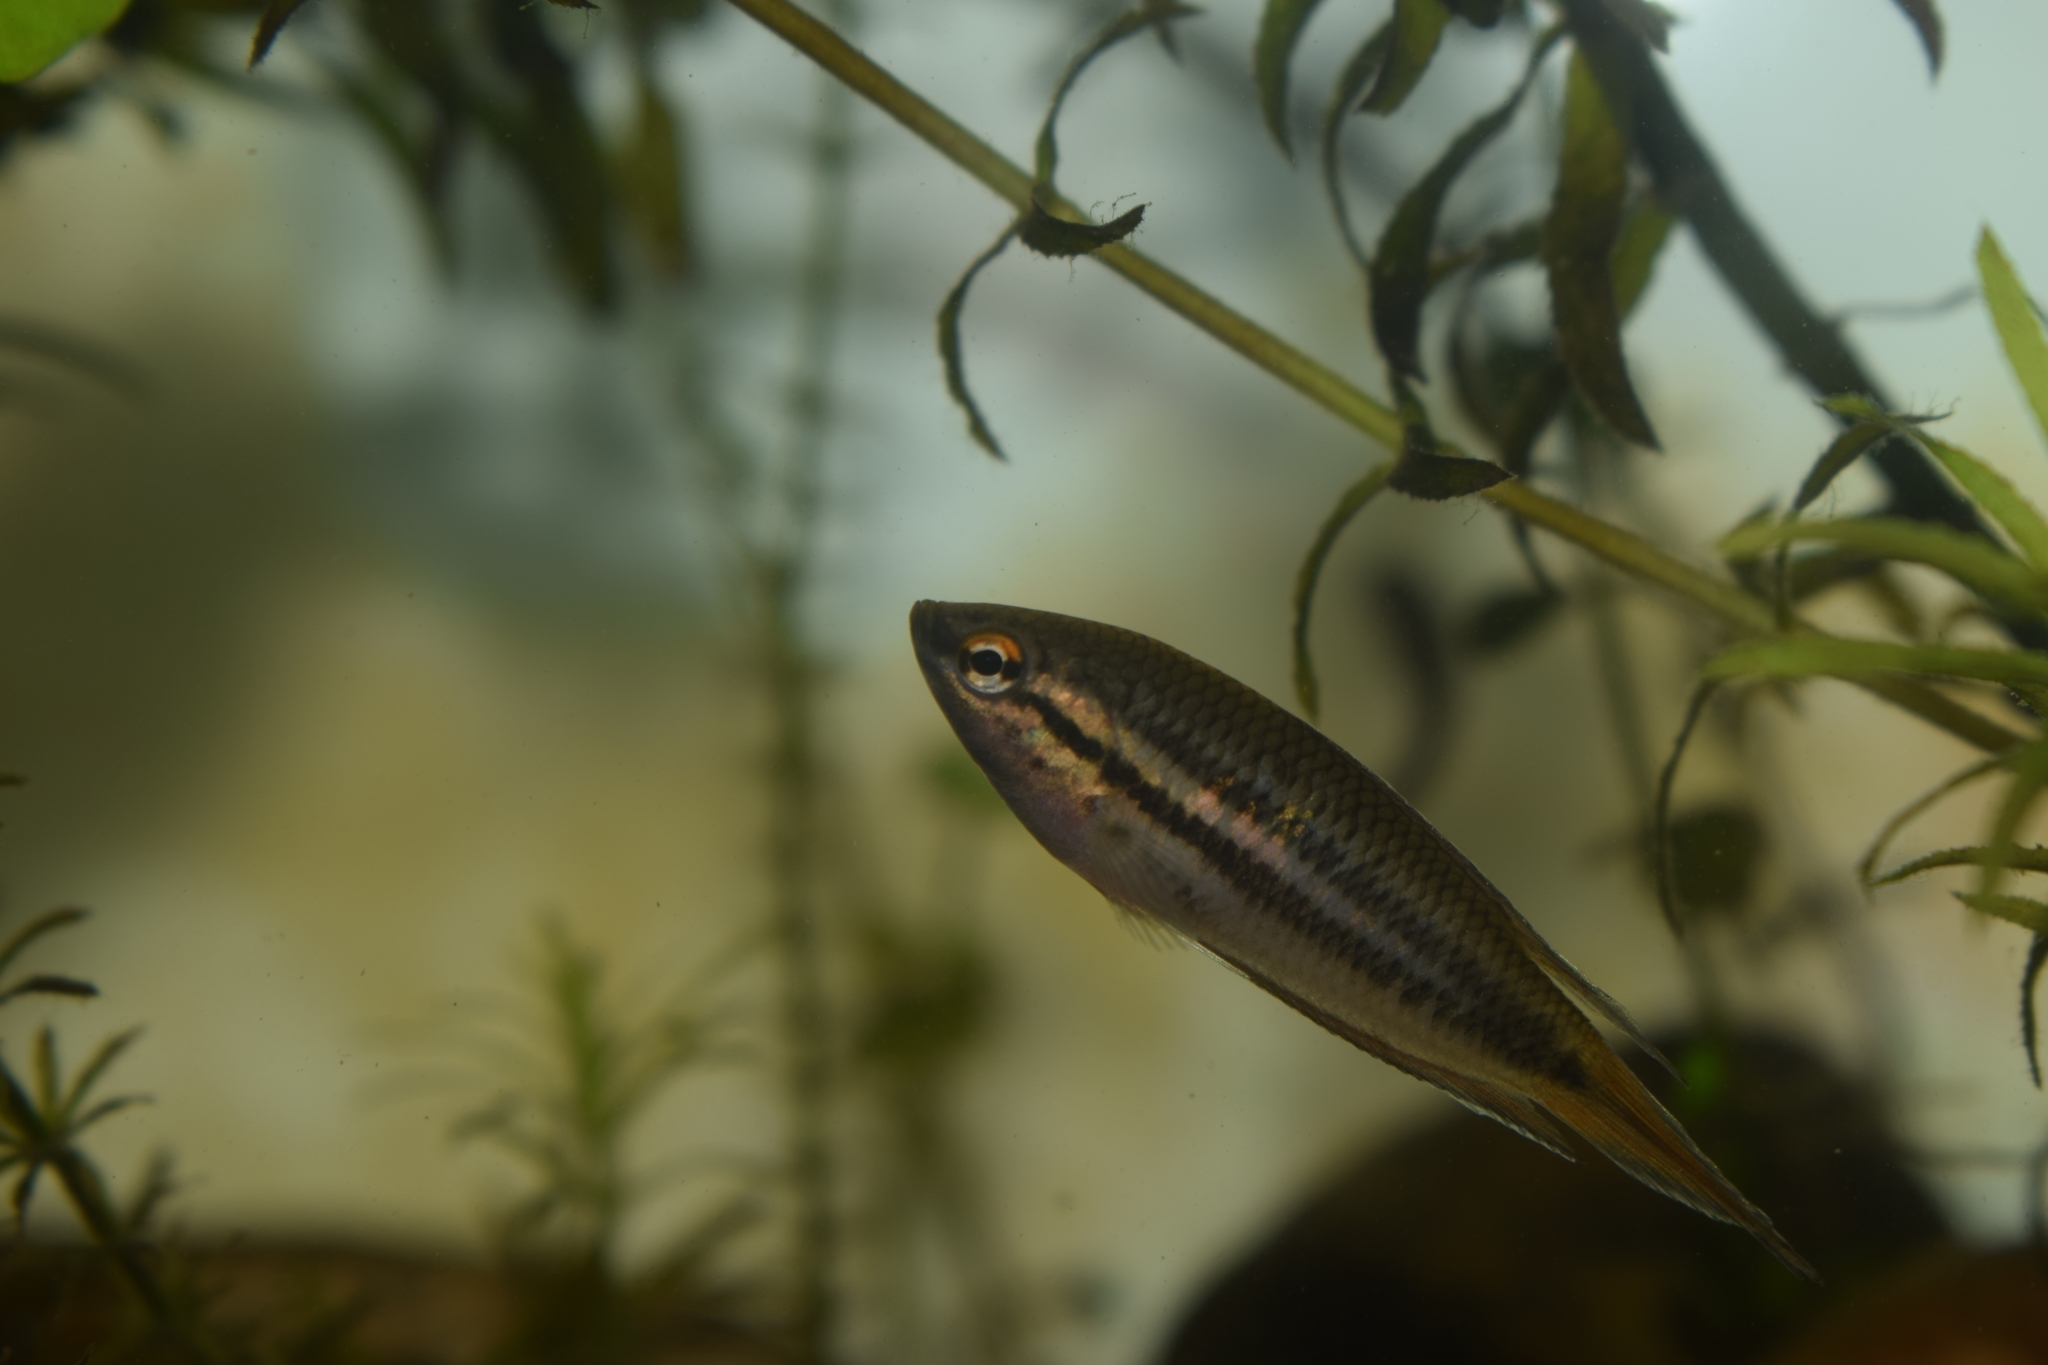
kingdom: Animalia
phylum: Chordata
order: Perciformes
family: Osphronemidae
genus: Pseudosphromenus
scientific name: Pseudosphromenus dayi
